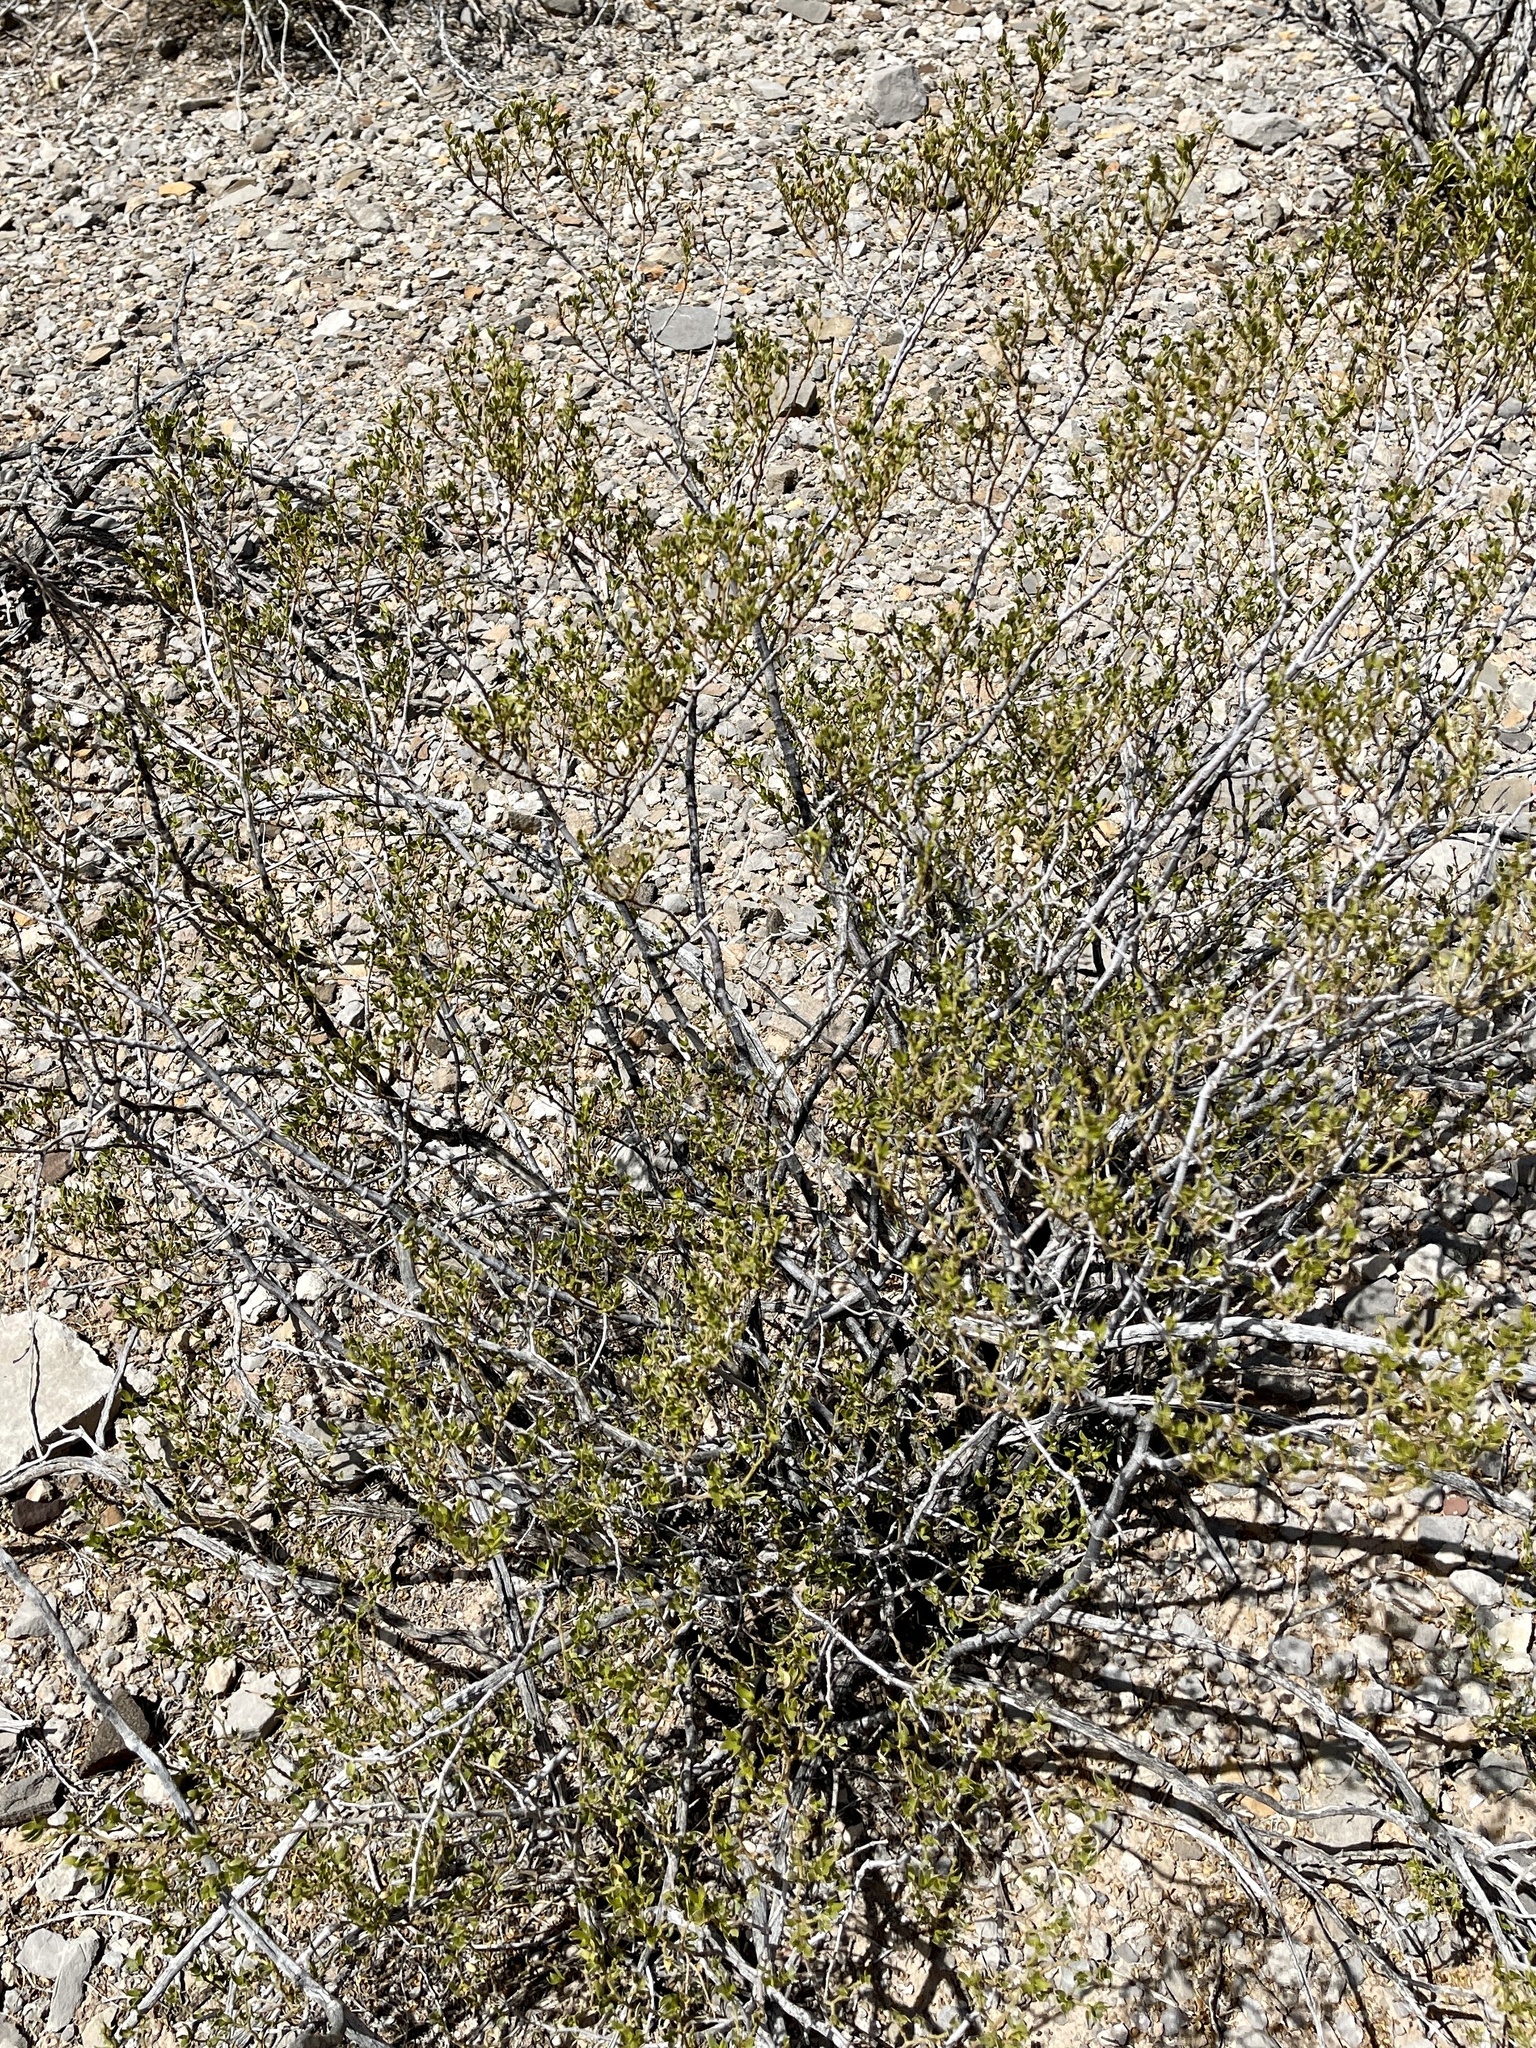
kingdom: Plantae
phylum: Tracheophyta
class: Magnoliopsida
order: Zygophyllales
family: Zygophyllaceae
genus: Larrea
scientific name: Larrea tridentata
